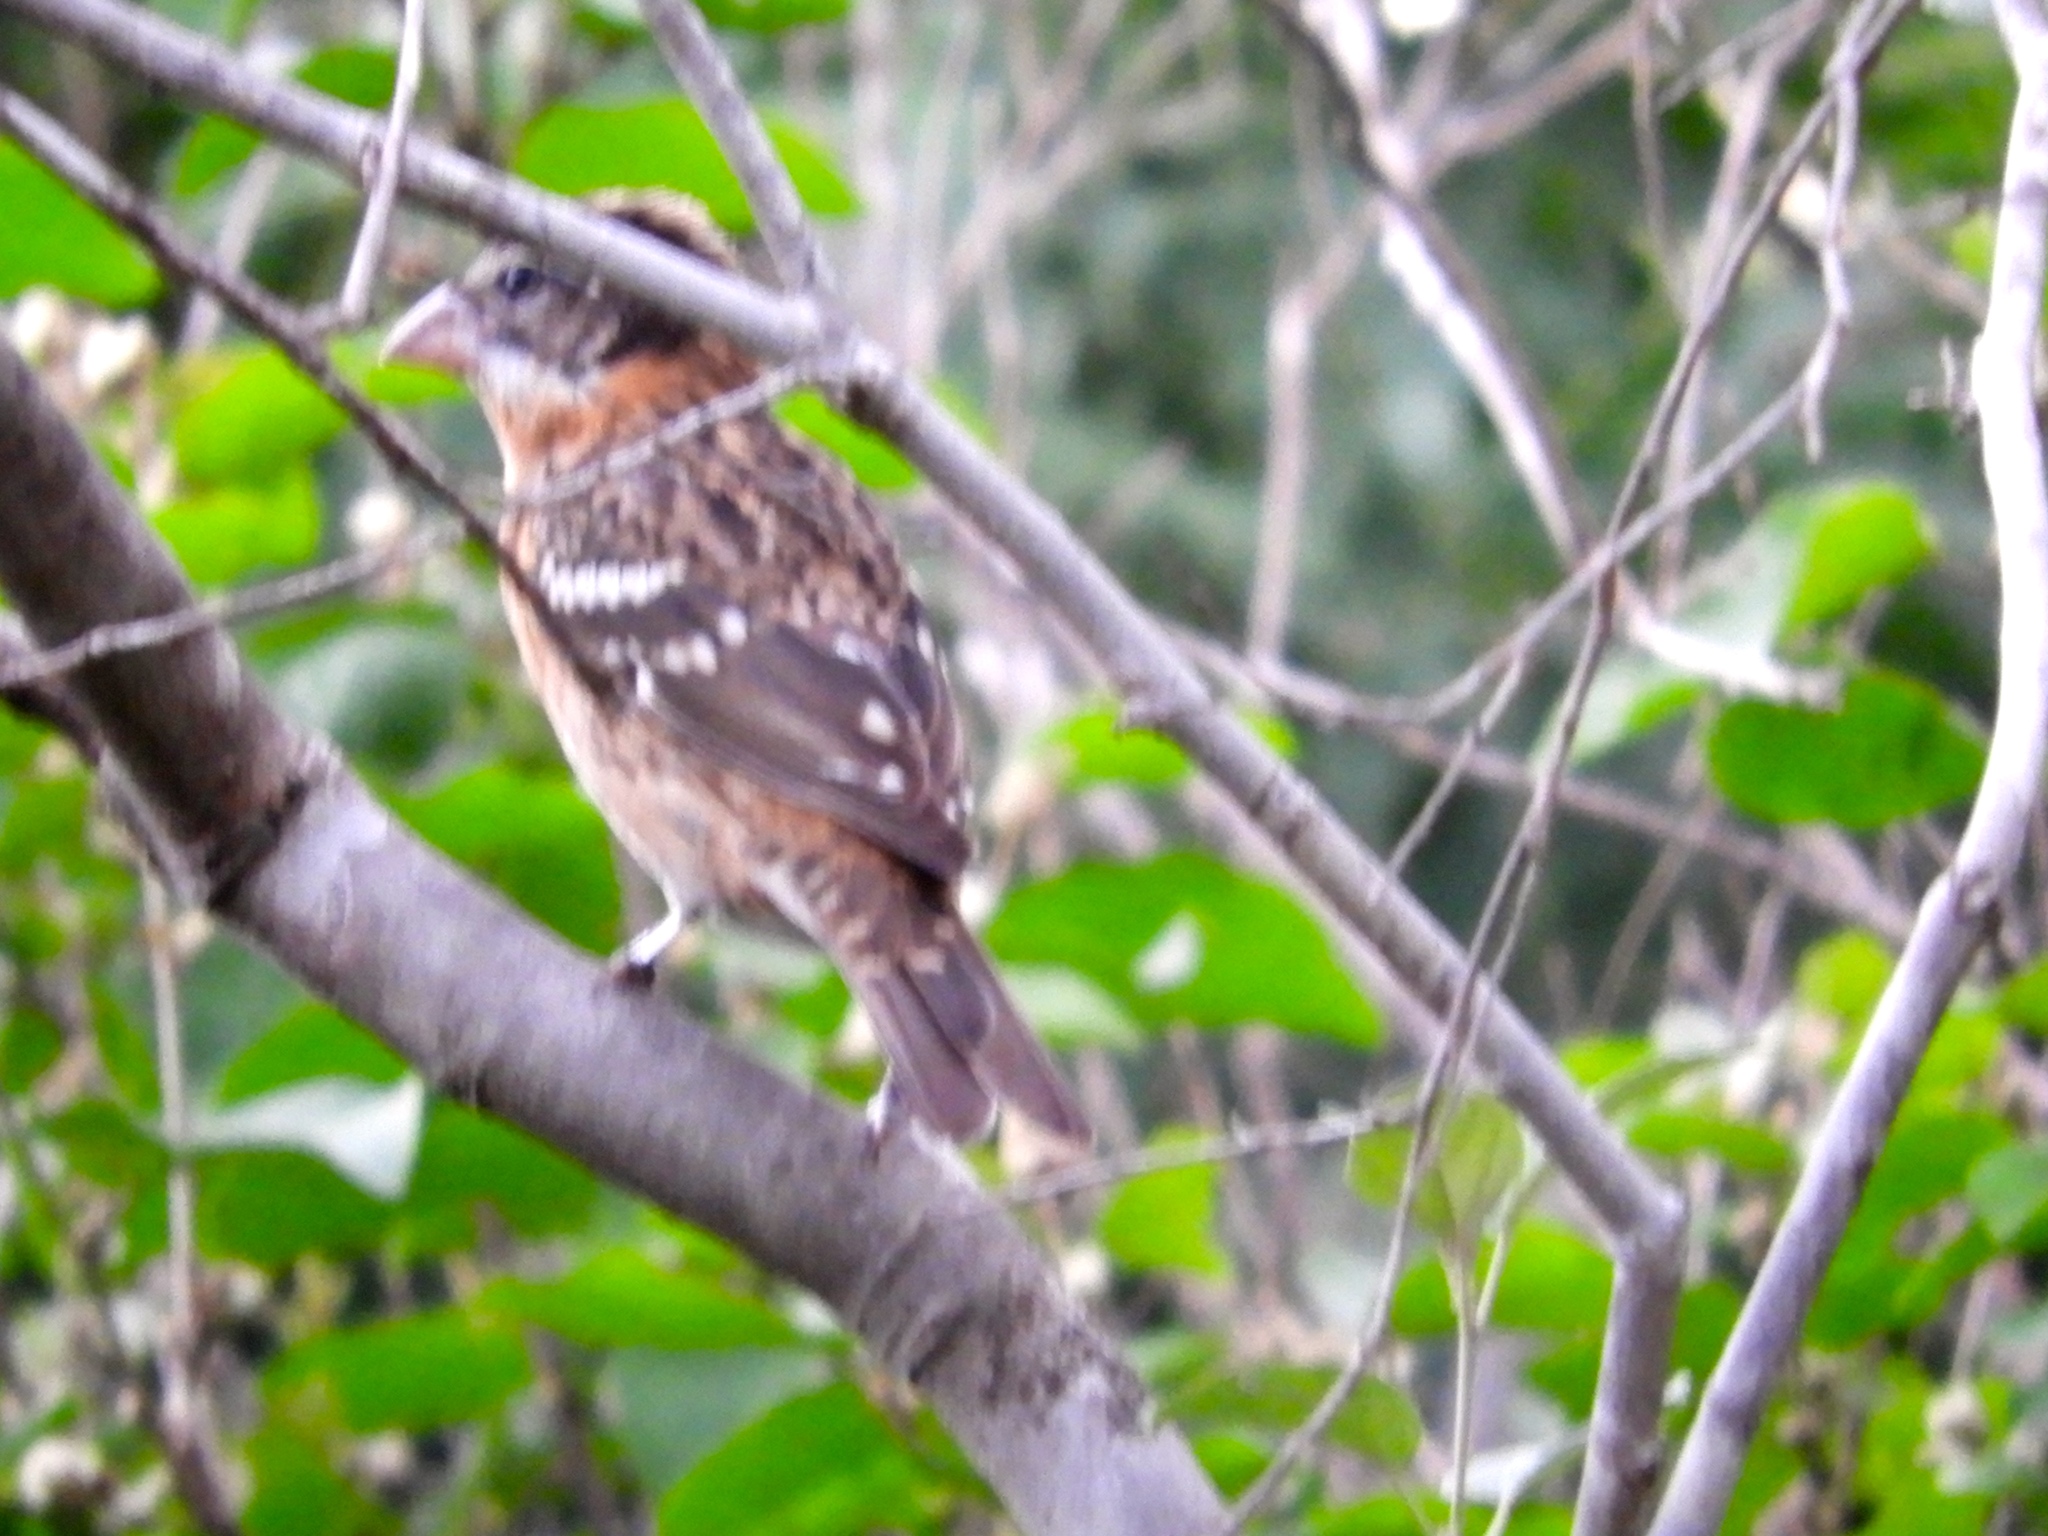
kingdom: Animalia
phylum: Chordata
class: Aves
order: Passeriformes
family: Cardinalidae
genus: Pheucticus
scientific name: Pheucticus melanocephalus
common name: Black-headed grosbeak
